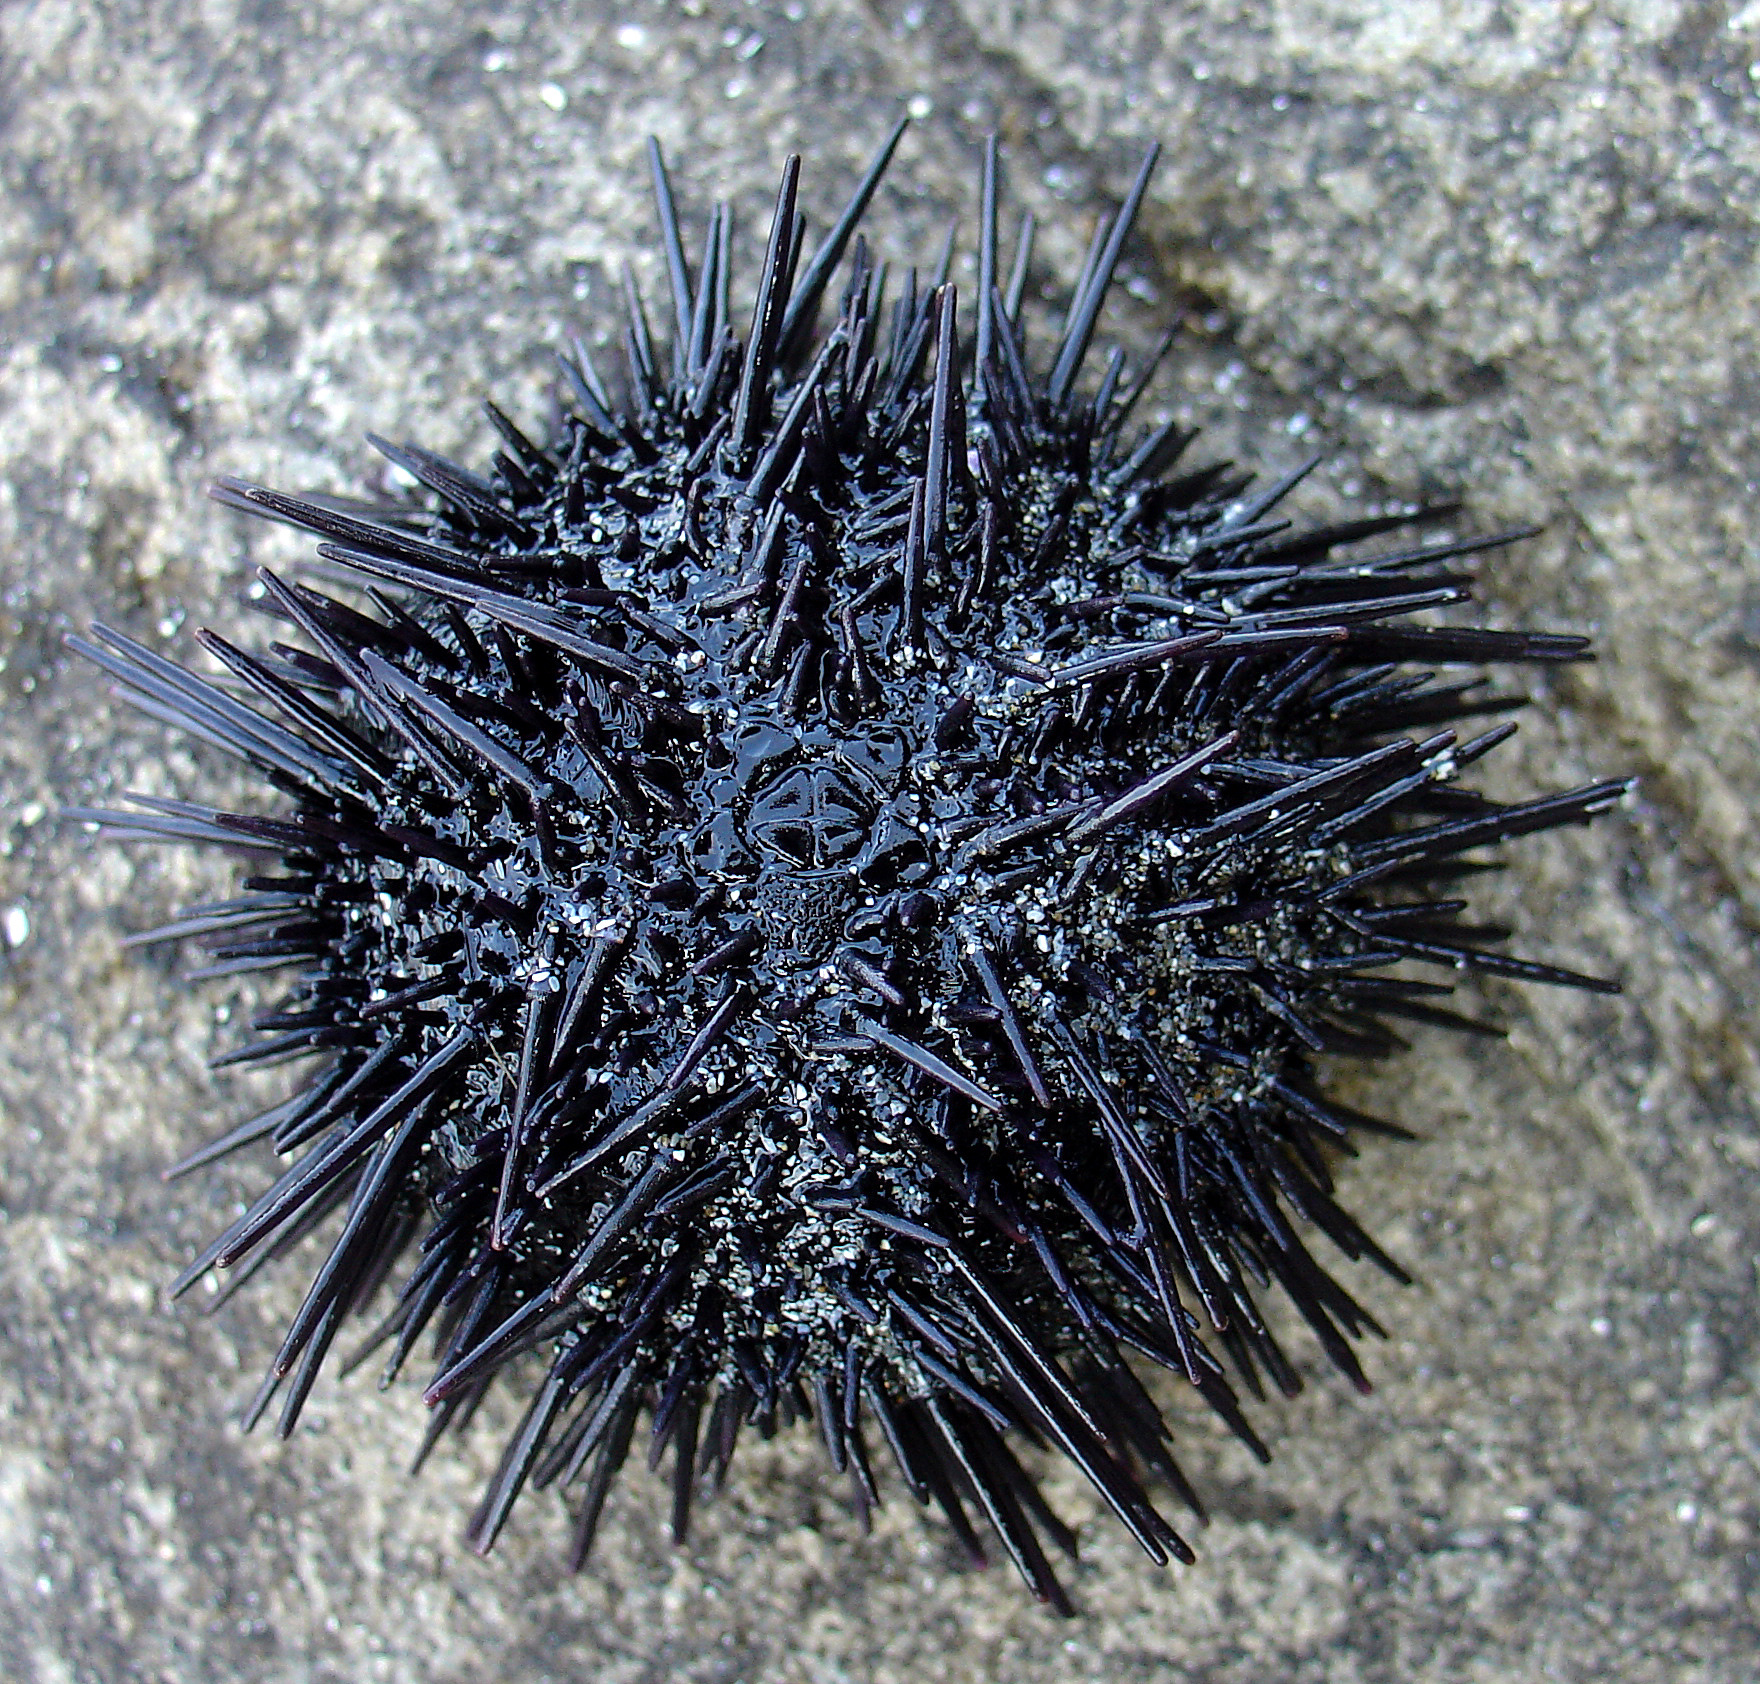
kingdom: Animalia
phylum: Echinodermata
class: Echinoidea
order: Arbacioida
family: Arbaciidae
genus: Tetrapygus
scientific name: Tetrapygus niger
